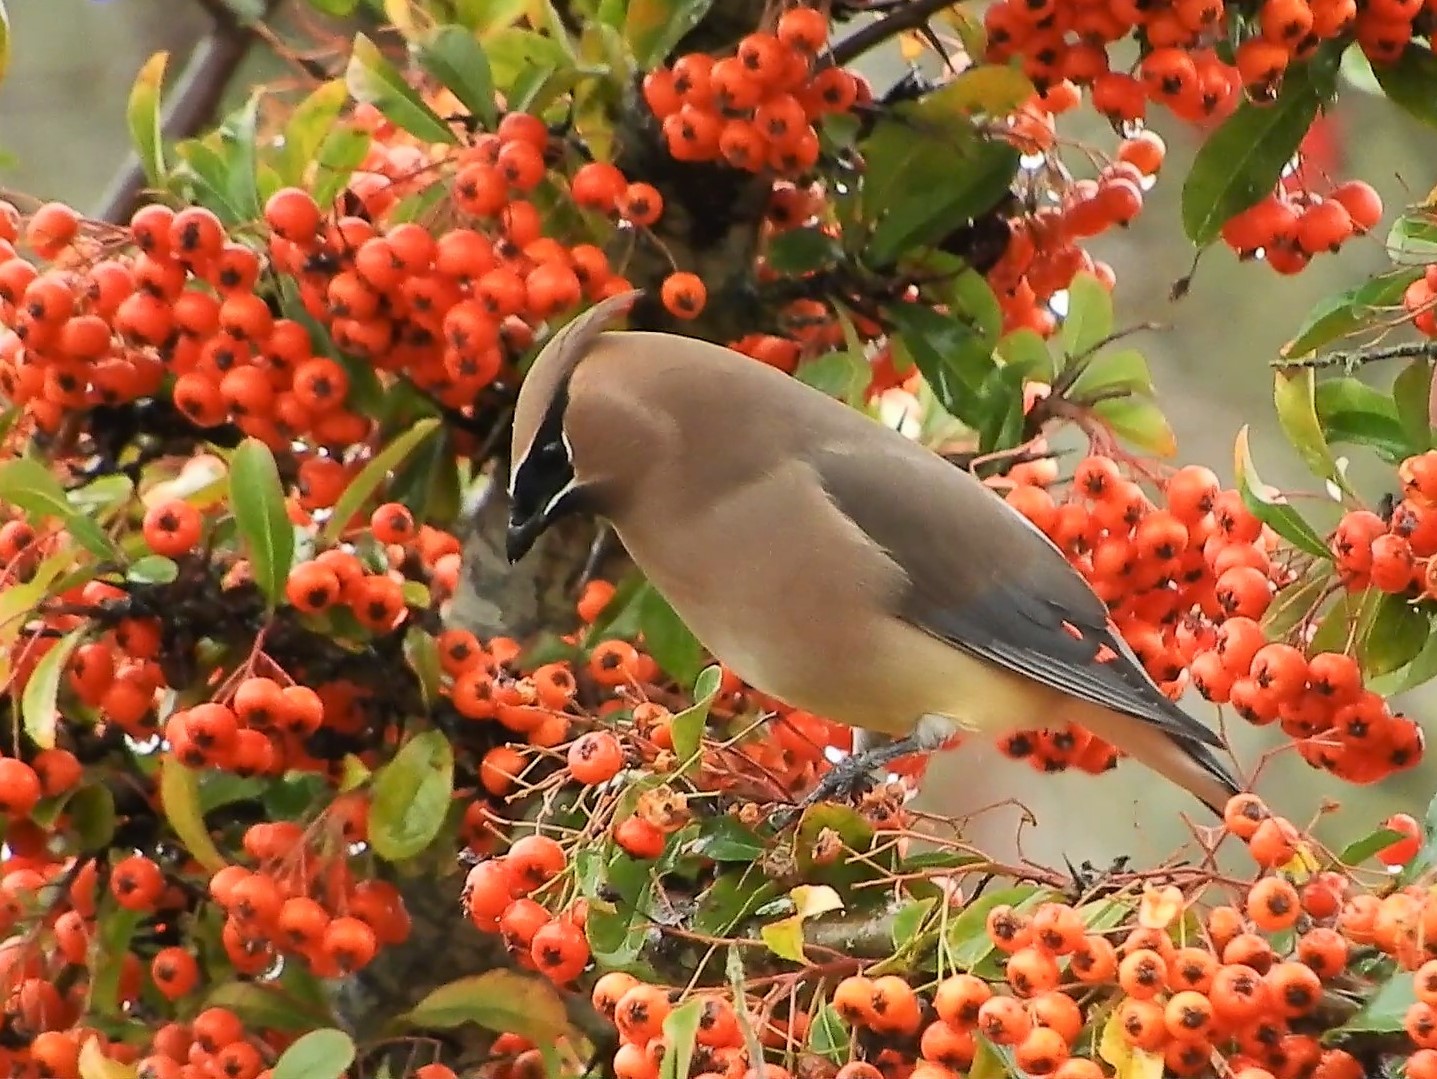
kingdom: Animalia
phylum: Chordata
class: Aves
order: Passeriformes
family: Bombycillidae
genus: Bombycilla
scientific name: Bombycilla cedrorum
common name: Cedar waxwing
